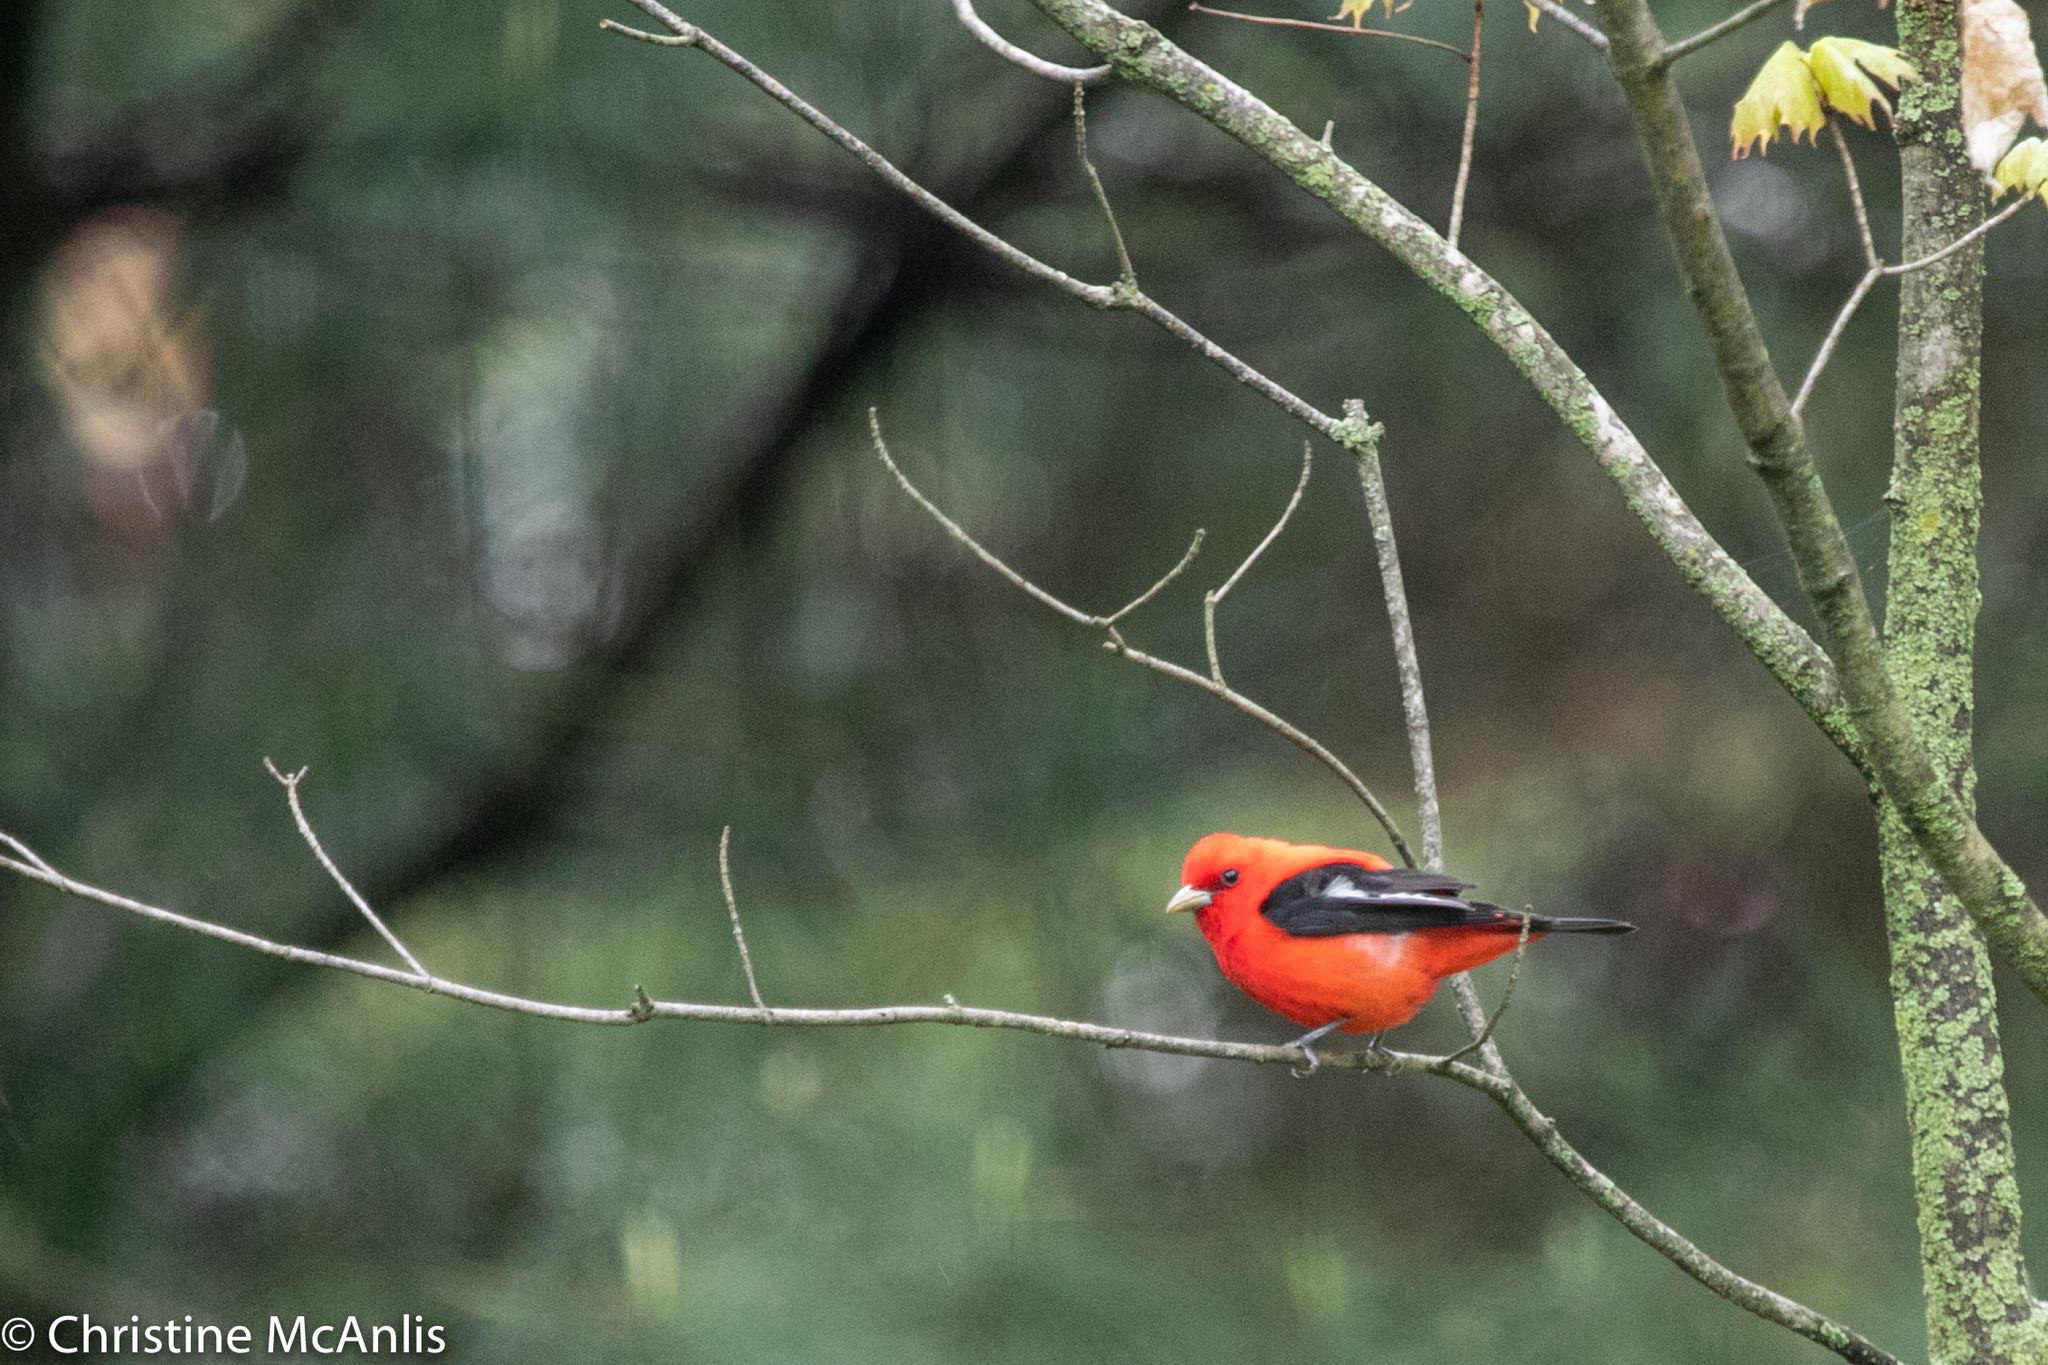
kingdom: Animalia
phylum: Chordata
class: Aves
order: Passeriformes
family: Cardinalidae
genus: Piranga
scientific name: Piranga olivacea
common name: Scarlet tanager
